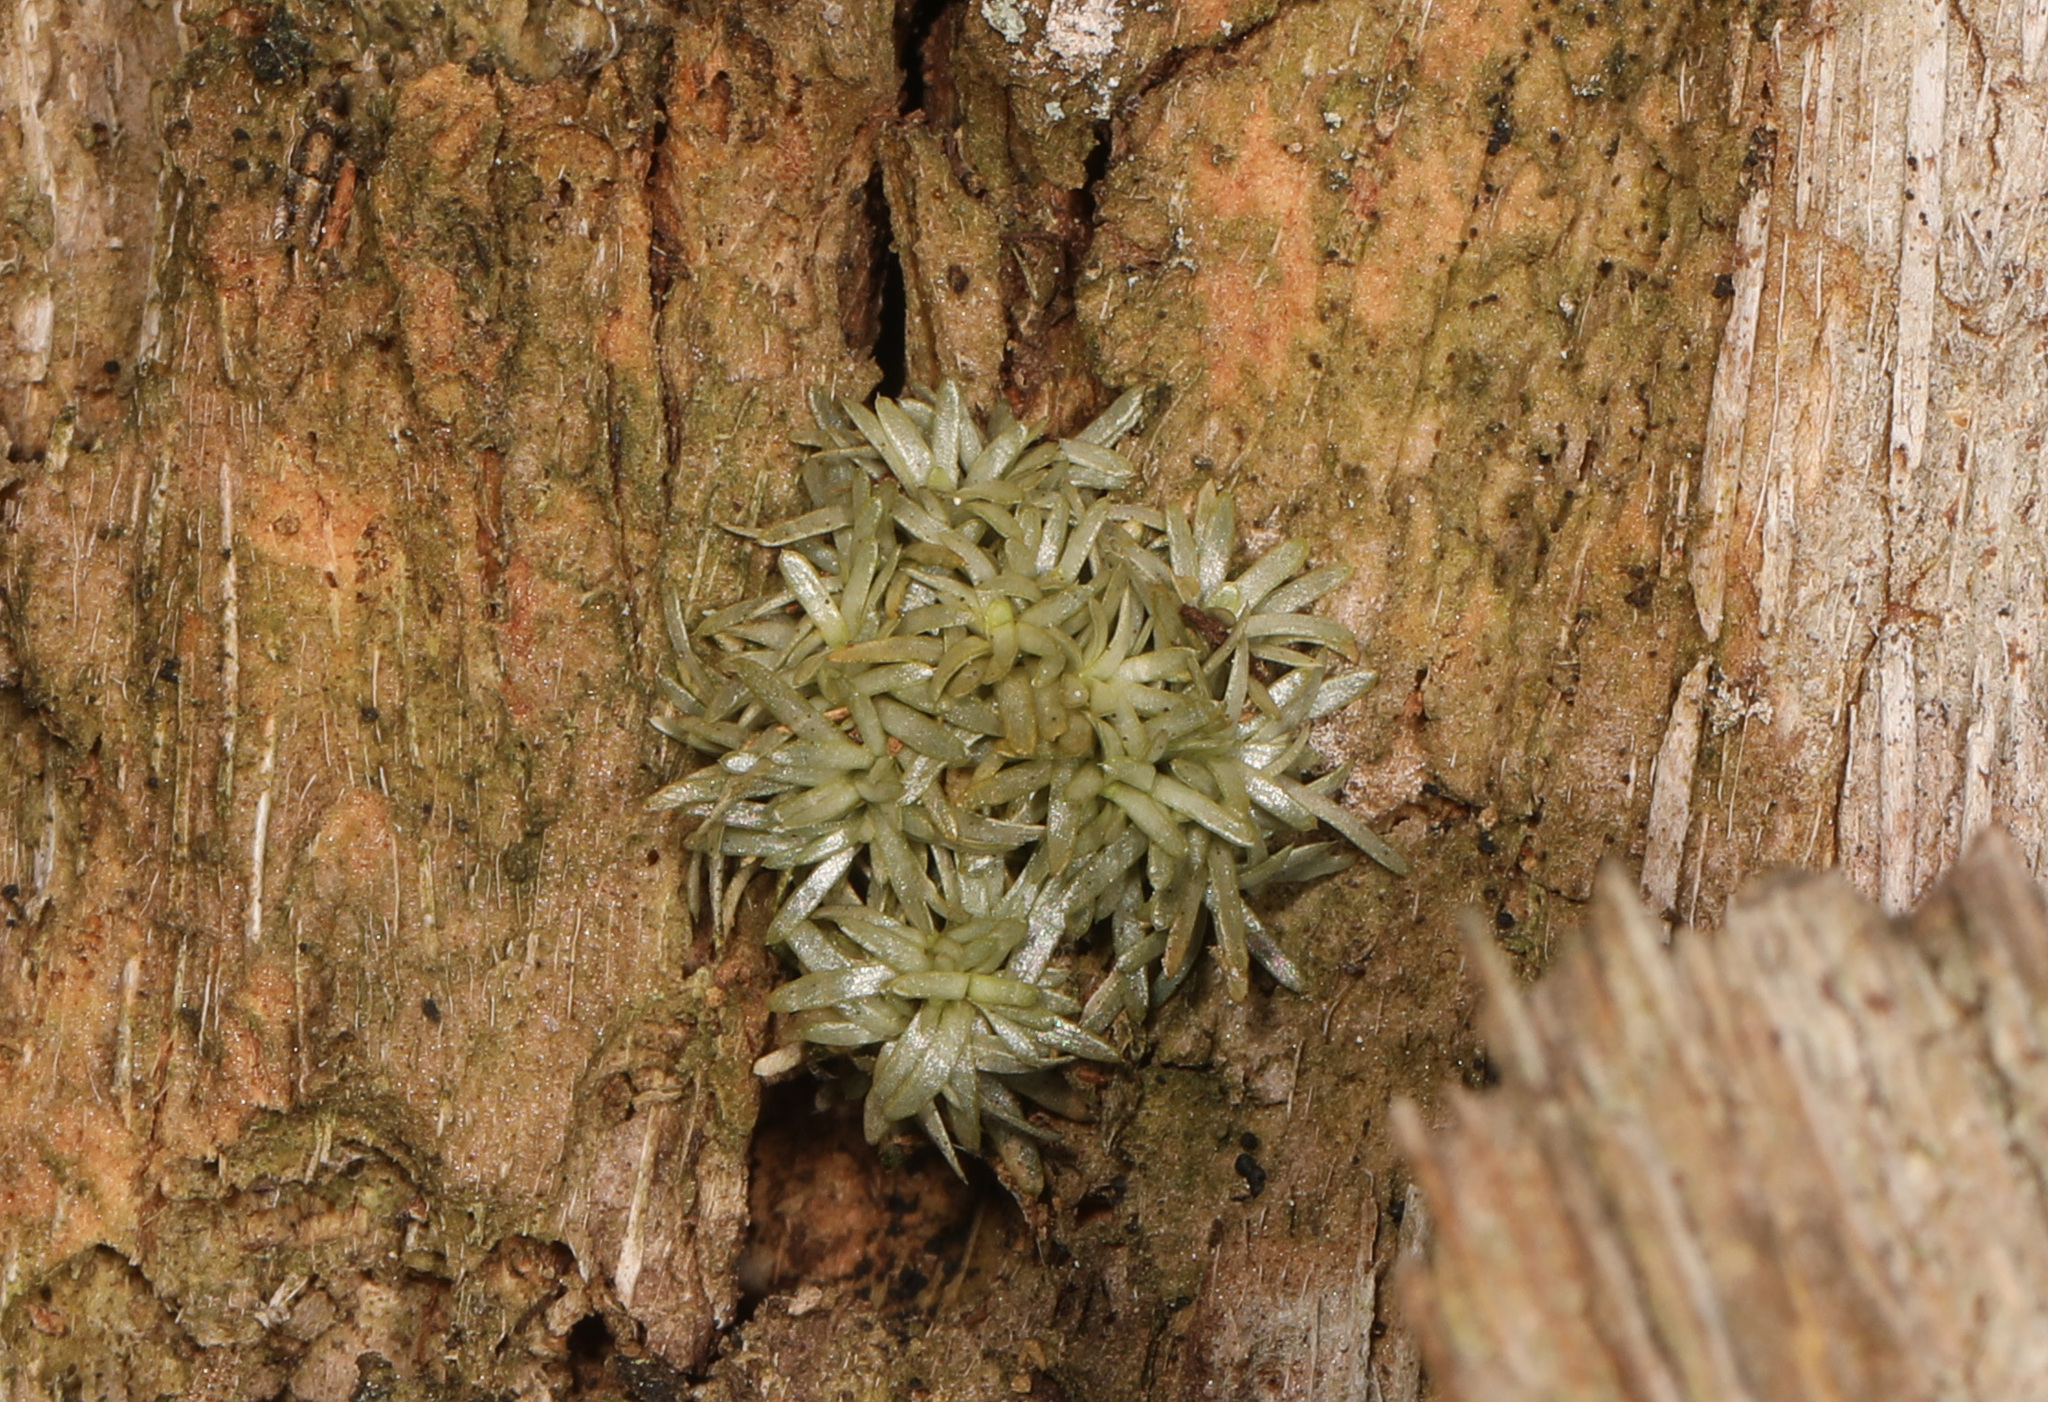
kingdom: Plantae
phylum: Bryophyta
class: Bryopsida
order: Dicranales
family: Octoblepharaceae
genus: Octoblepharum
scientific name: Octoblepharum albidum
